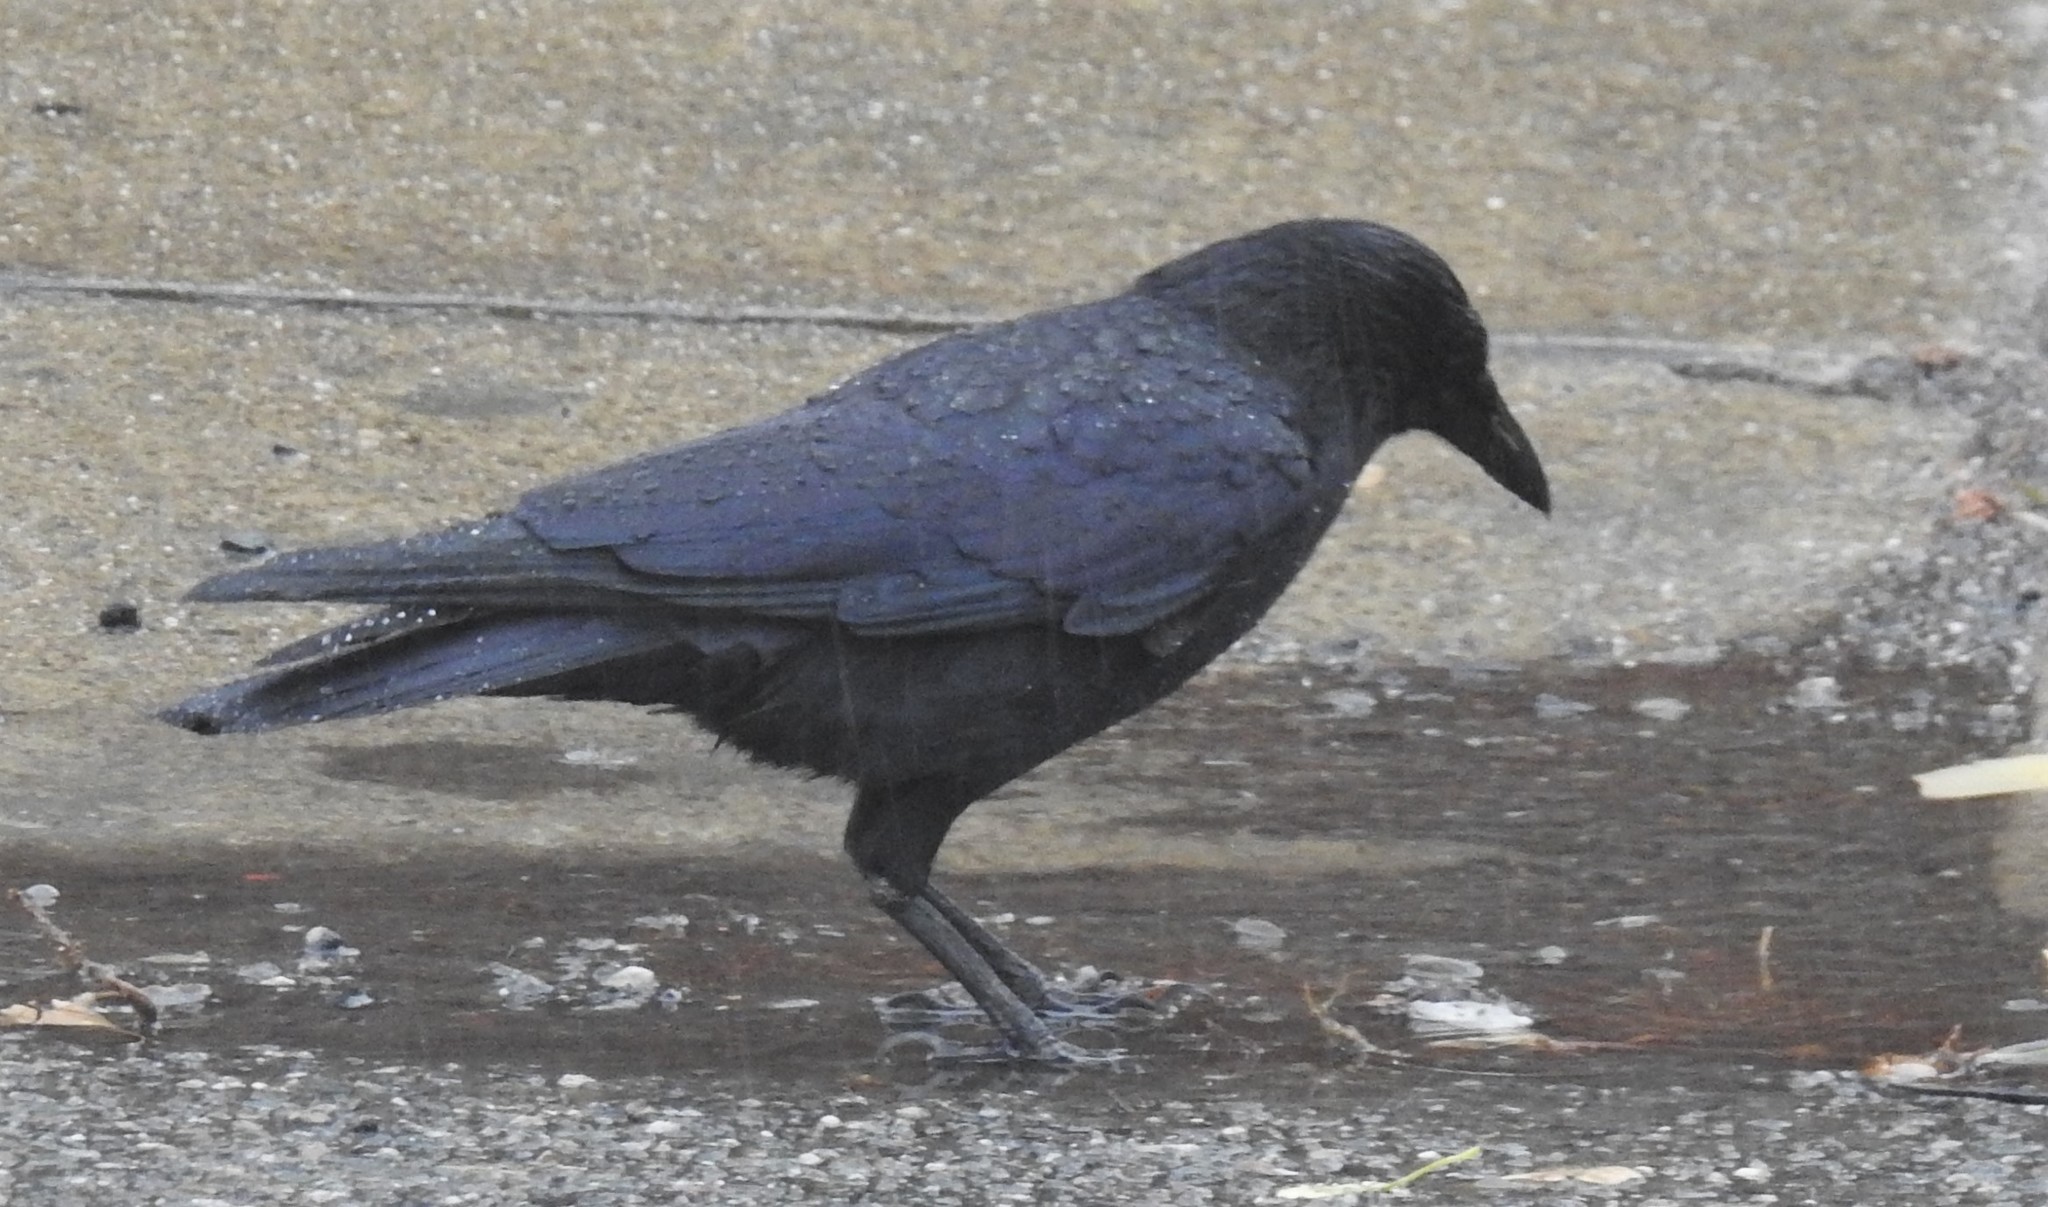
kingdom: Animalia
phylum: Chordata
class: Aves
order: Passeriformes
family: Corvidae
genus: Corvus
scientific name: Corvus brachyrhynchos
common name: American crow
